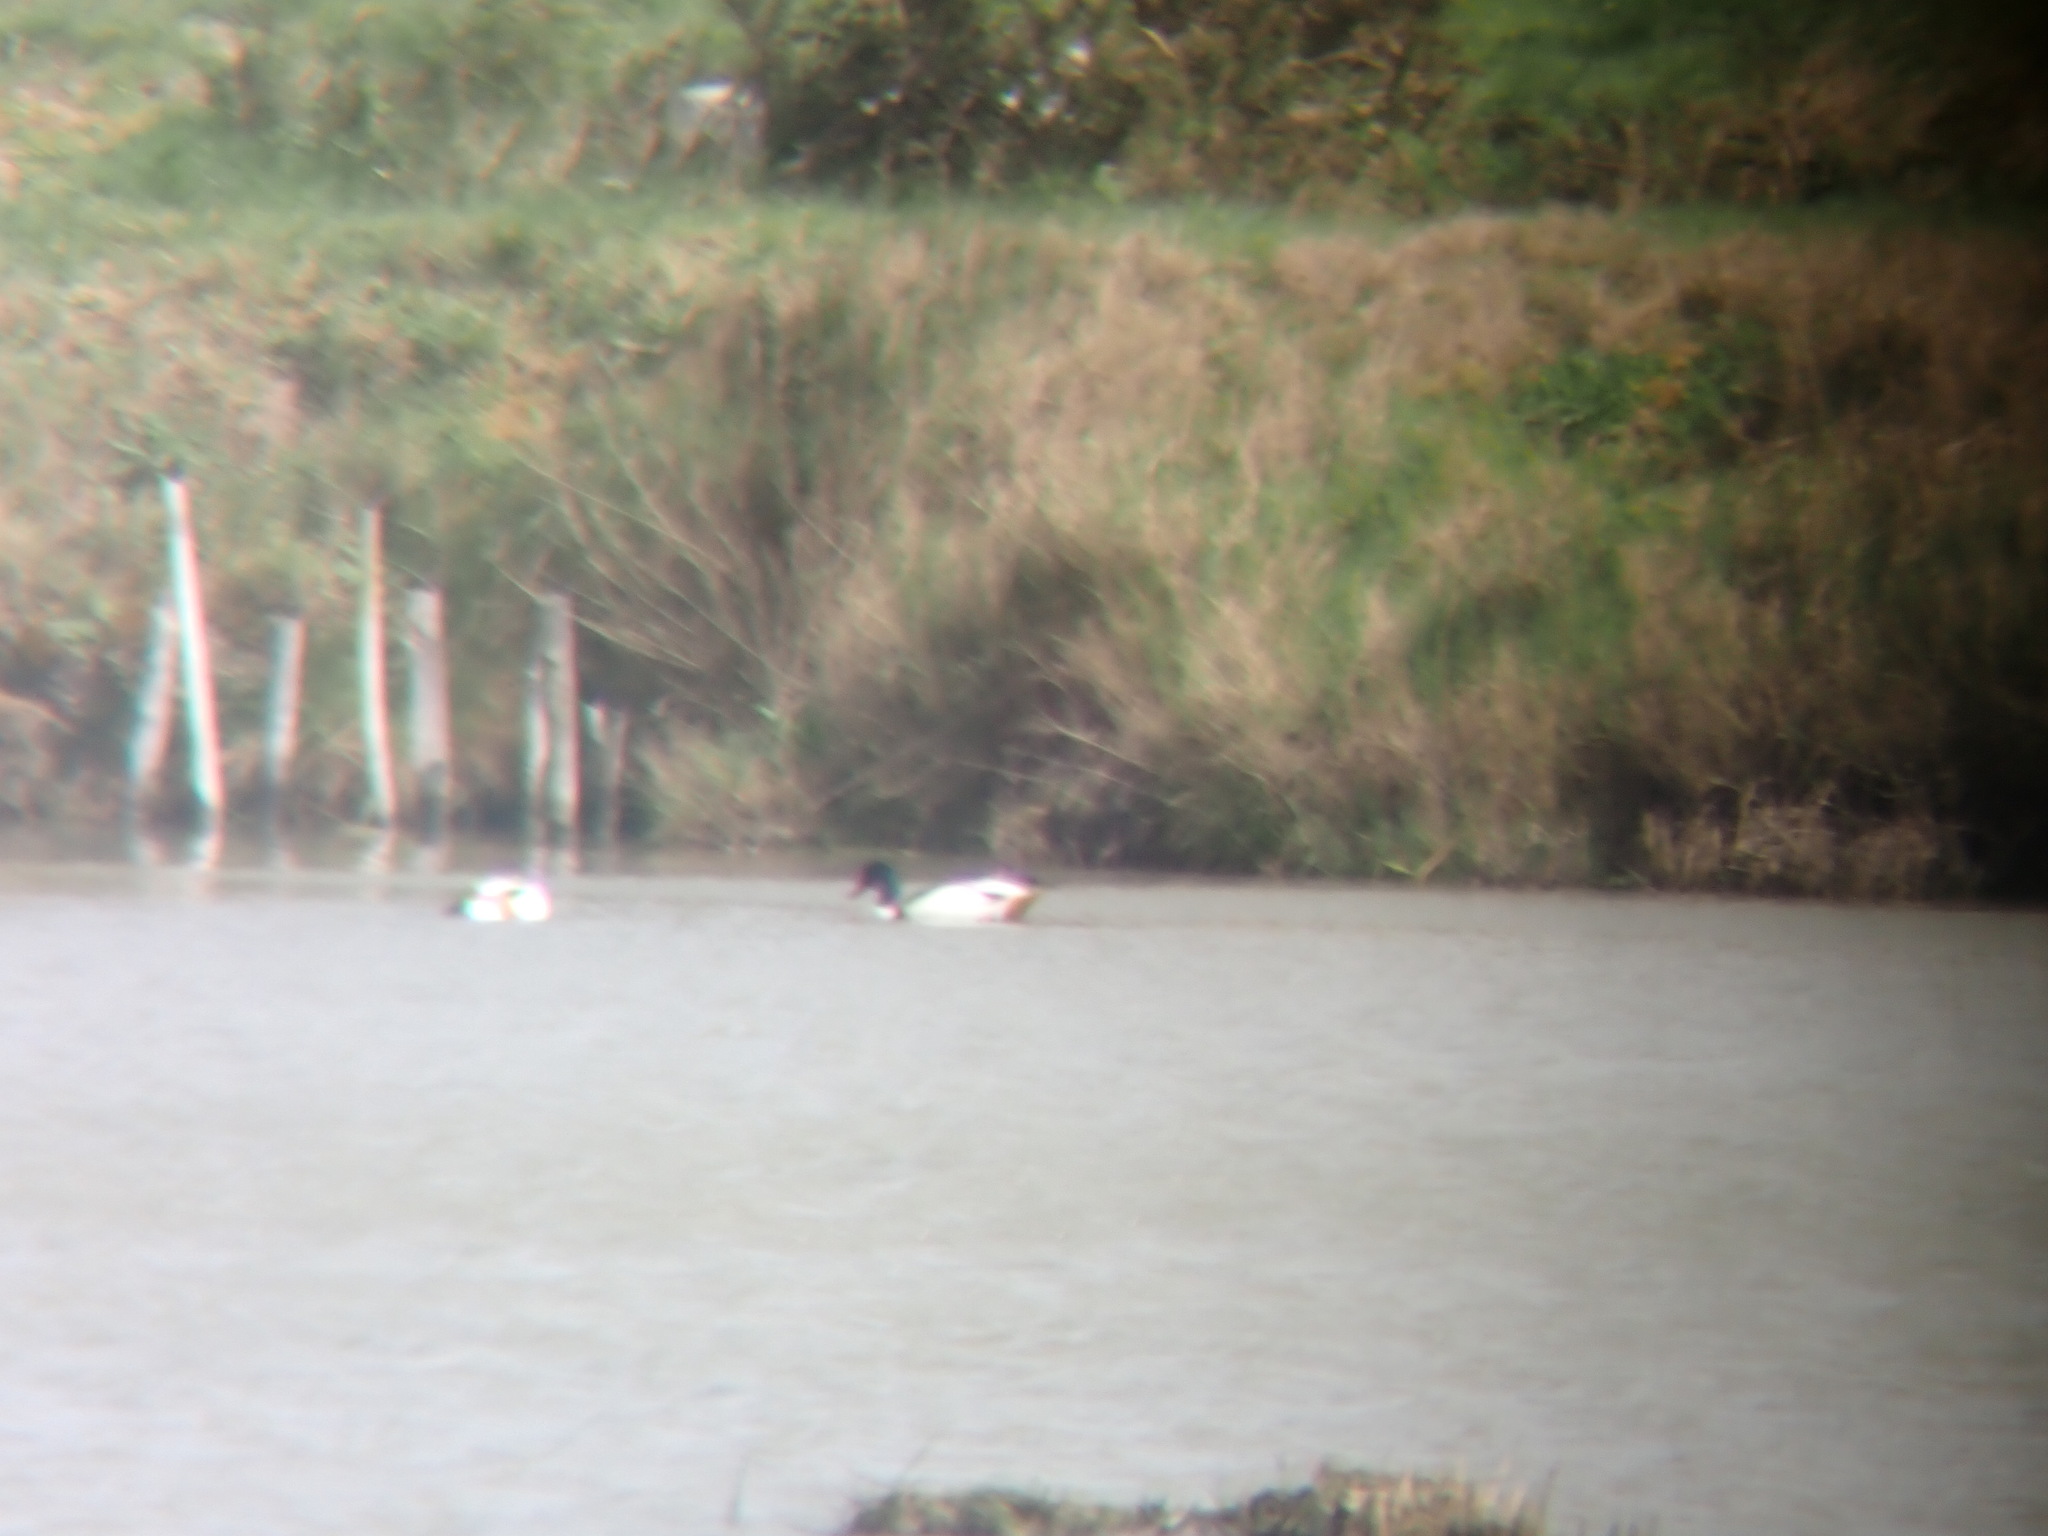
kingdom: Animalia
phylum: Chordata
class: Aves
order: Anseriformes
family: Anatidae
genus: Tadorna
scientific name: Tadorna tadorna
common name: Common shelduck
